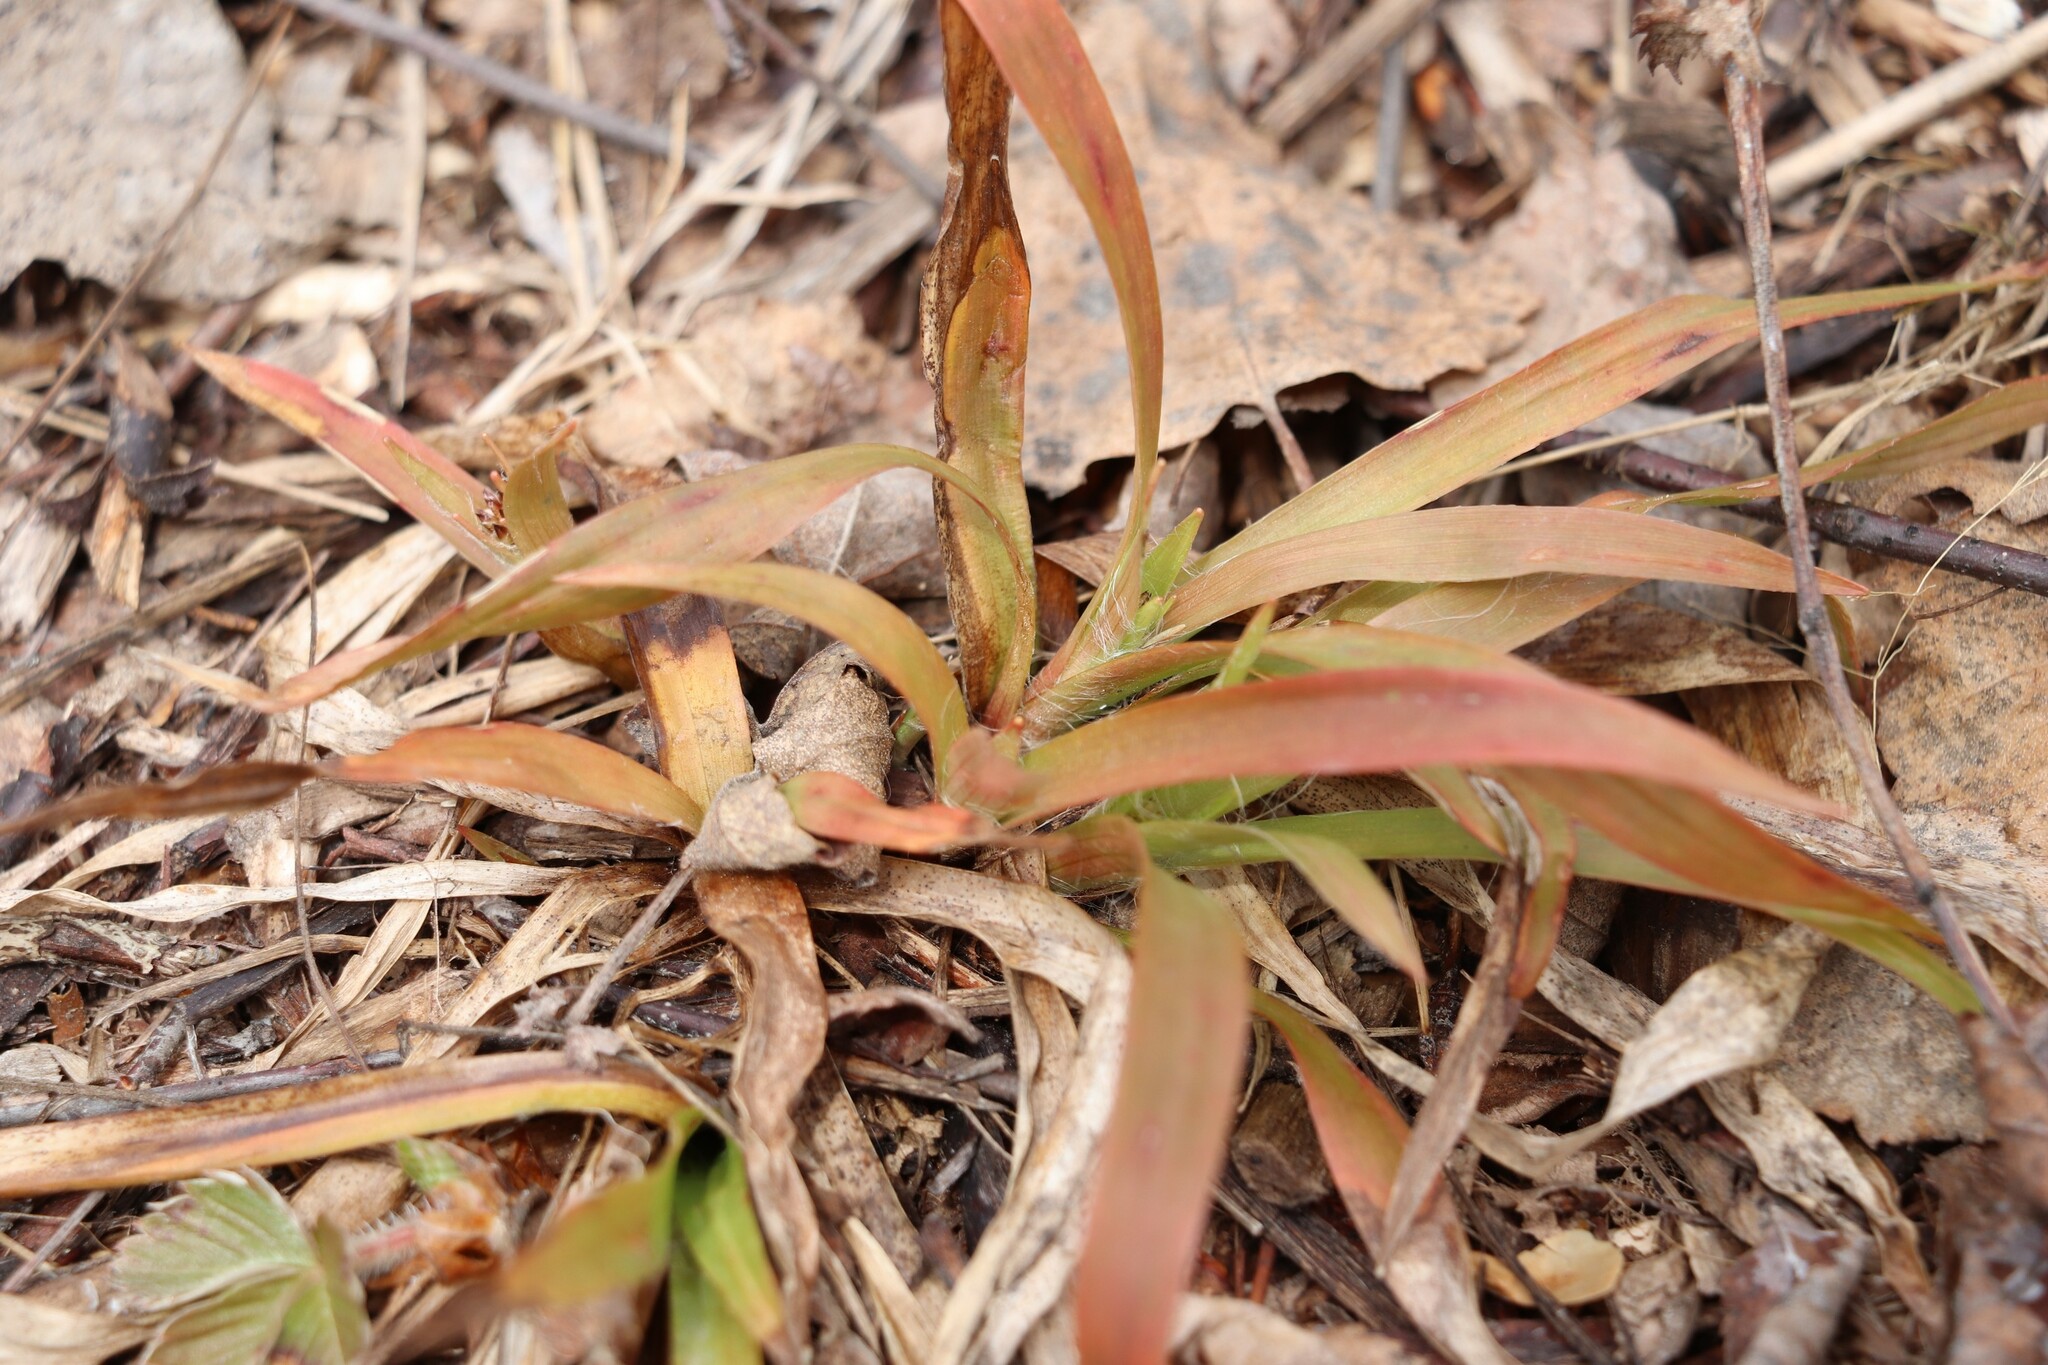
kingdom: Plantae
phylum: Tracheophyta
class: Liliopsida
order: Poales
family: Juncaceae
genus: Luzula
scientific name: Luzula pilosa
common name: Hairy wood-rush
